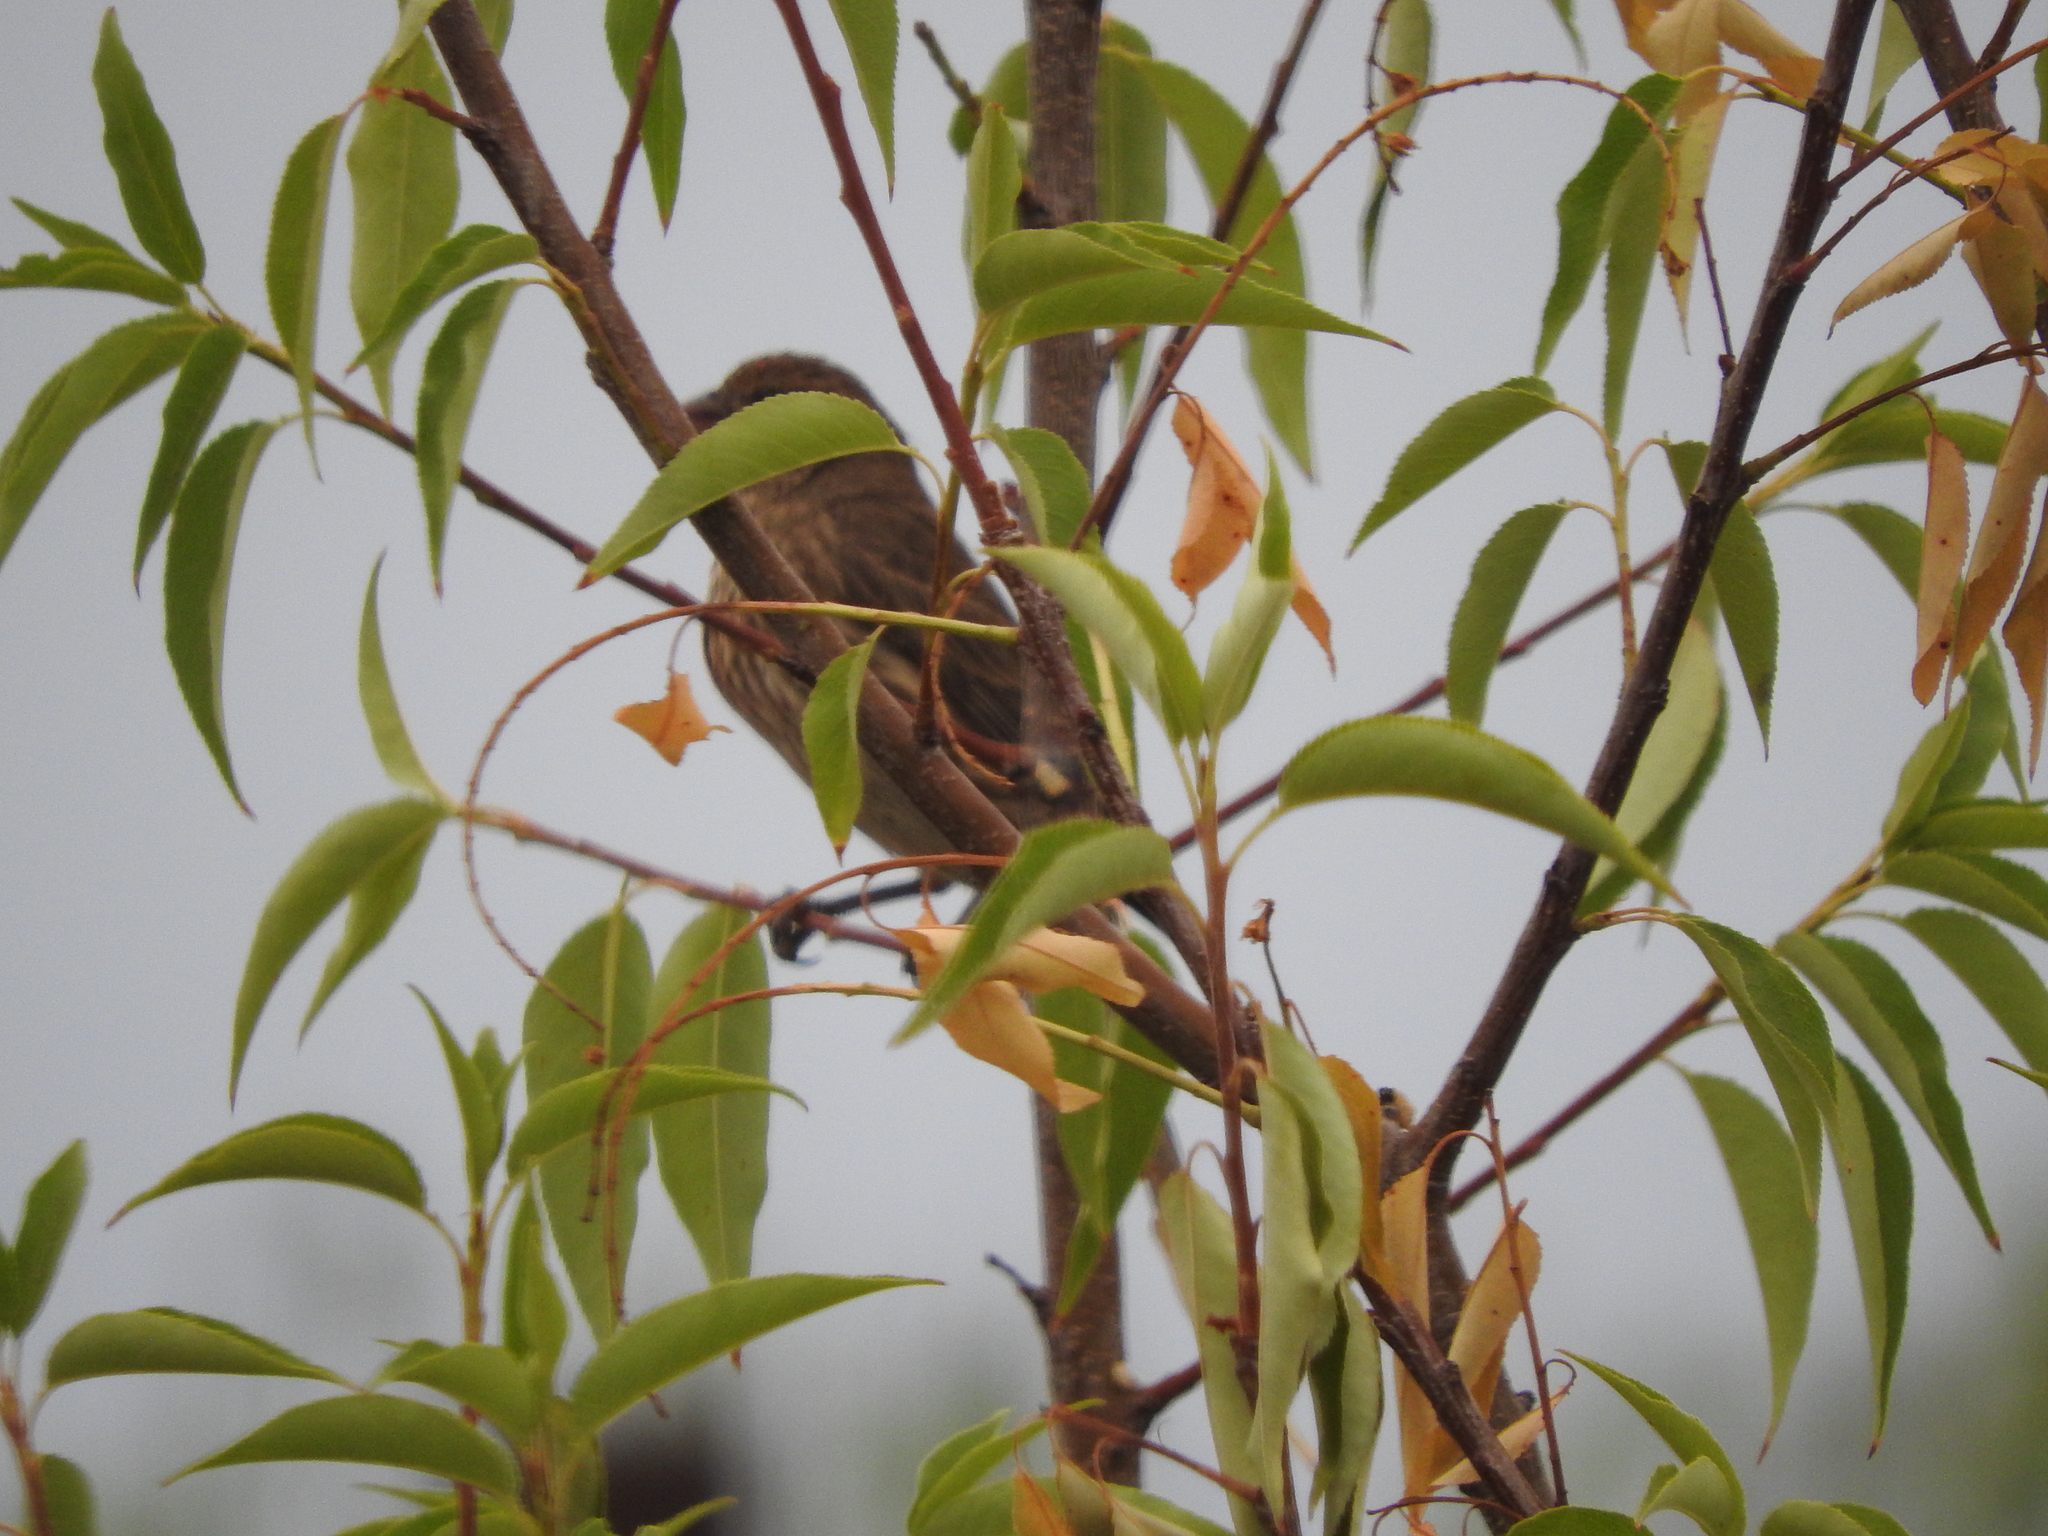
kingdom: Animalia
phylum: Chordata
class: Aves
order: Passeriformes
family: Passeridae
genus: Passer
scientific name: Passer domesticus
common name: House sparrow
